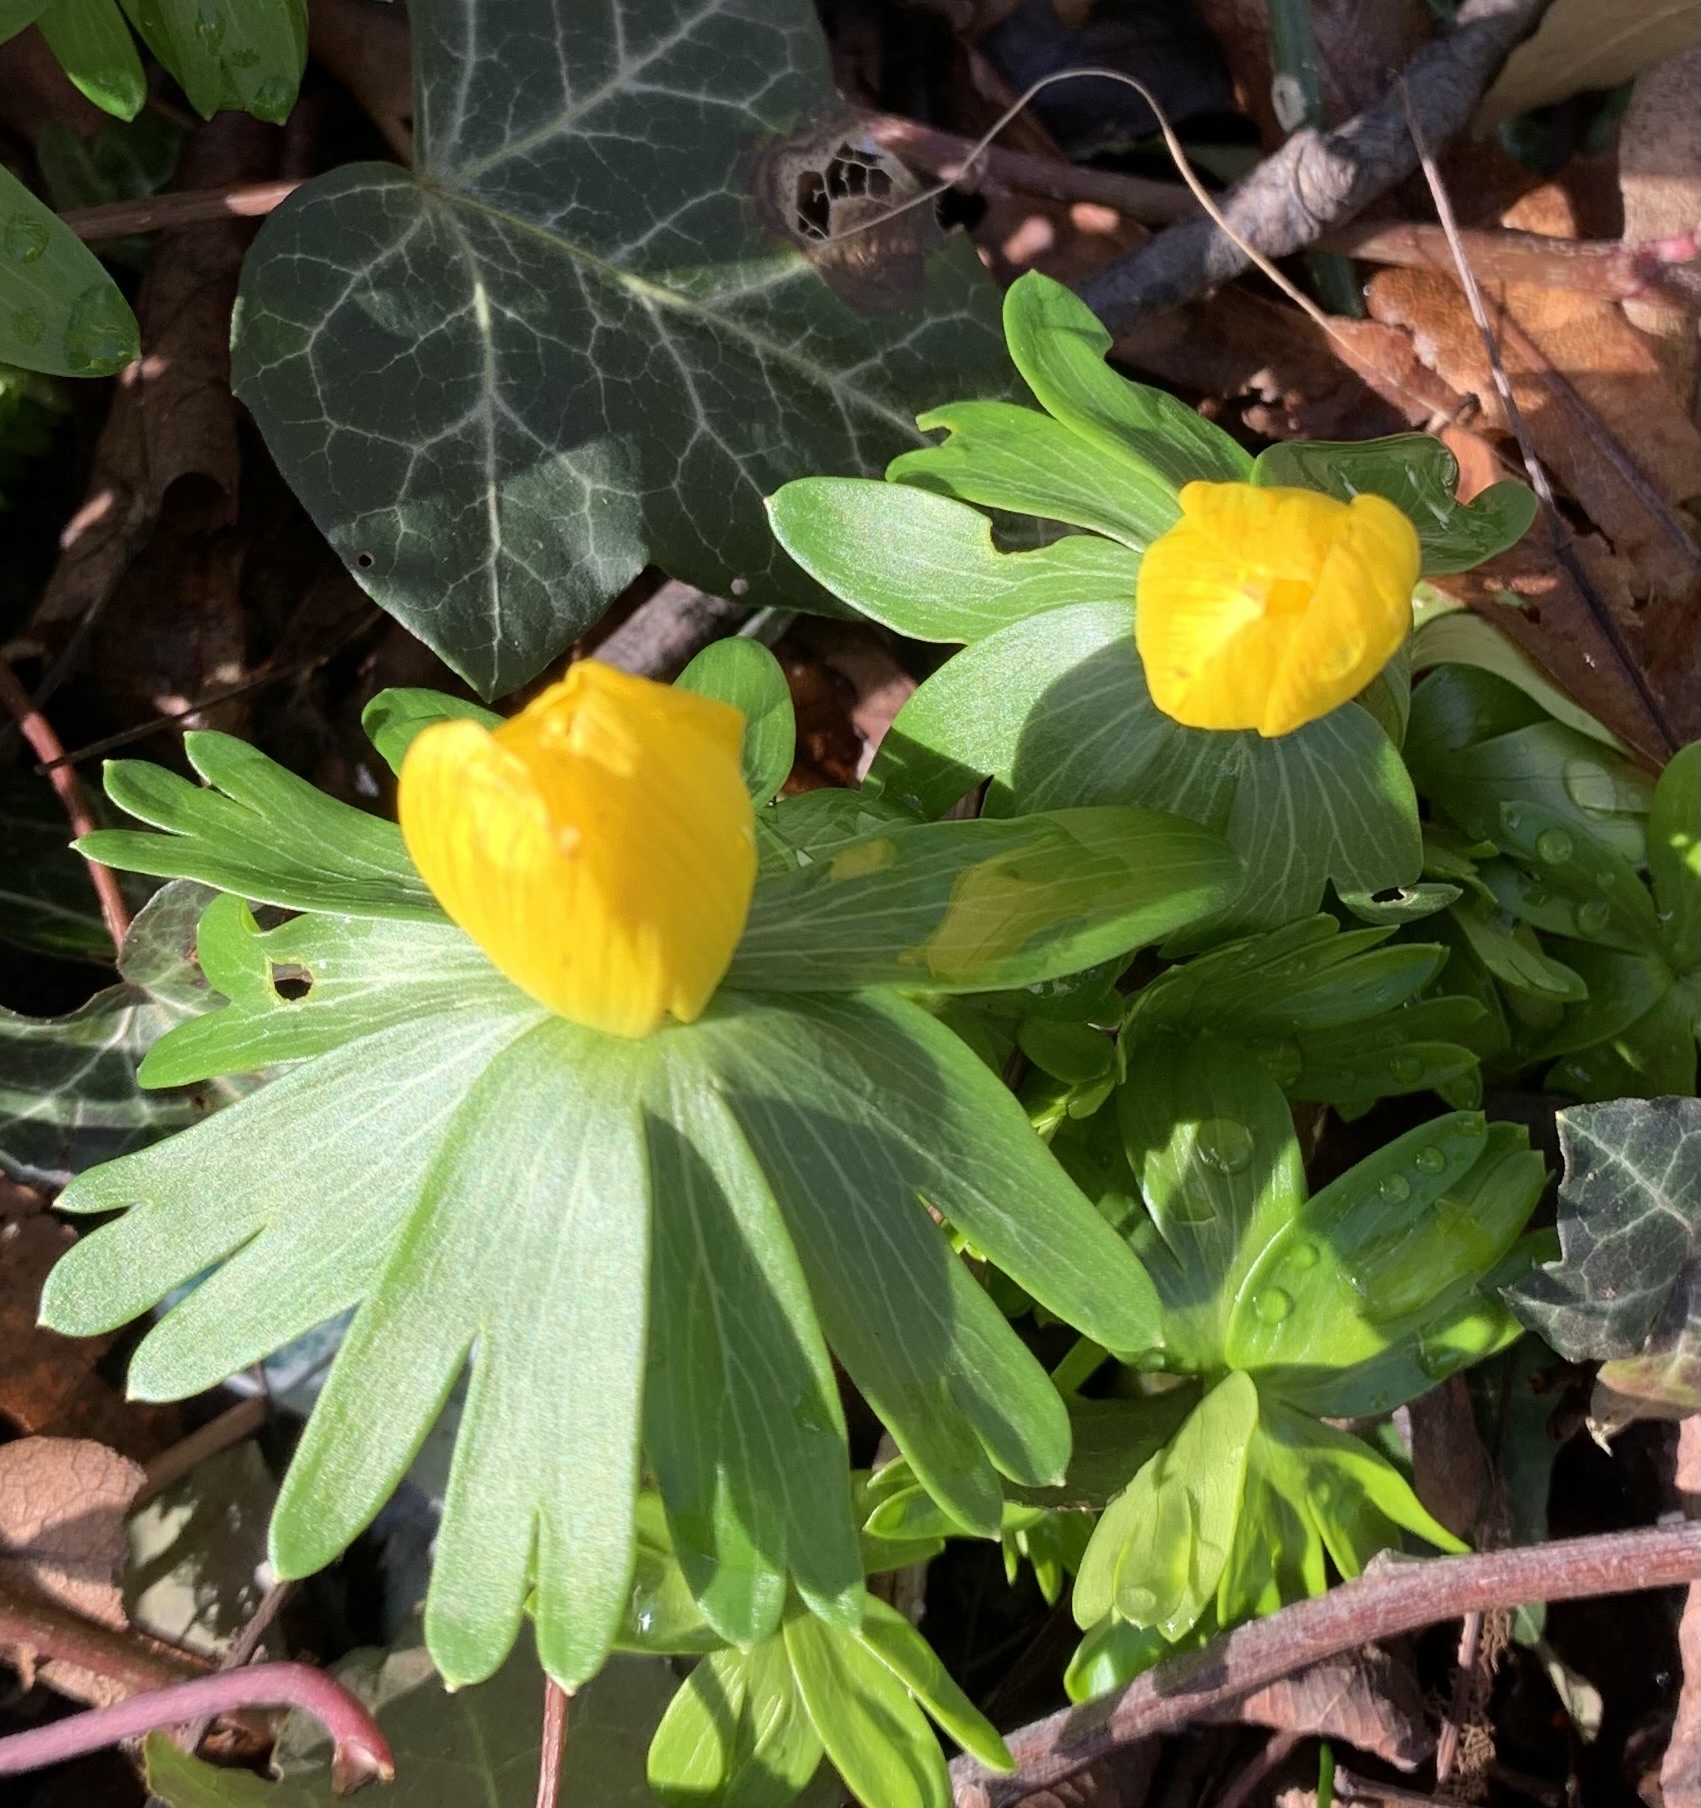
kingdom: Plantae
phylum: Tracheophyta
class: Magnoliopsida
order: Ranunculales
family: Ranunculaceae
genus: Eranthis
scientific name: Eranthis hyemalis
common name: Winter aconite
